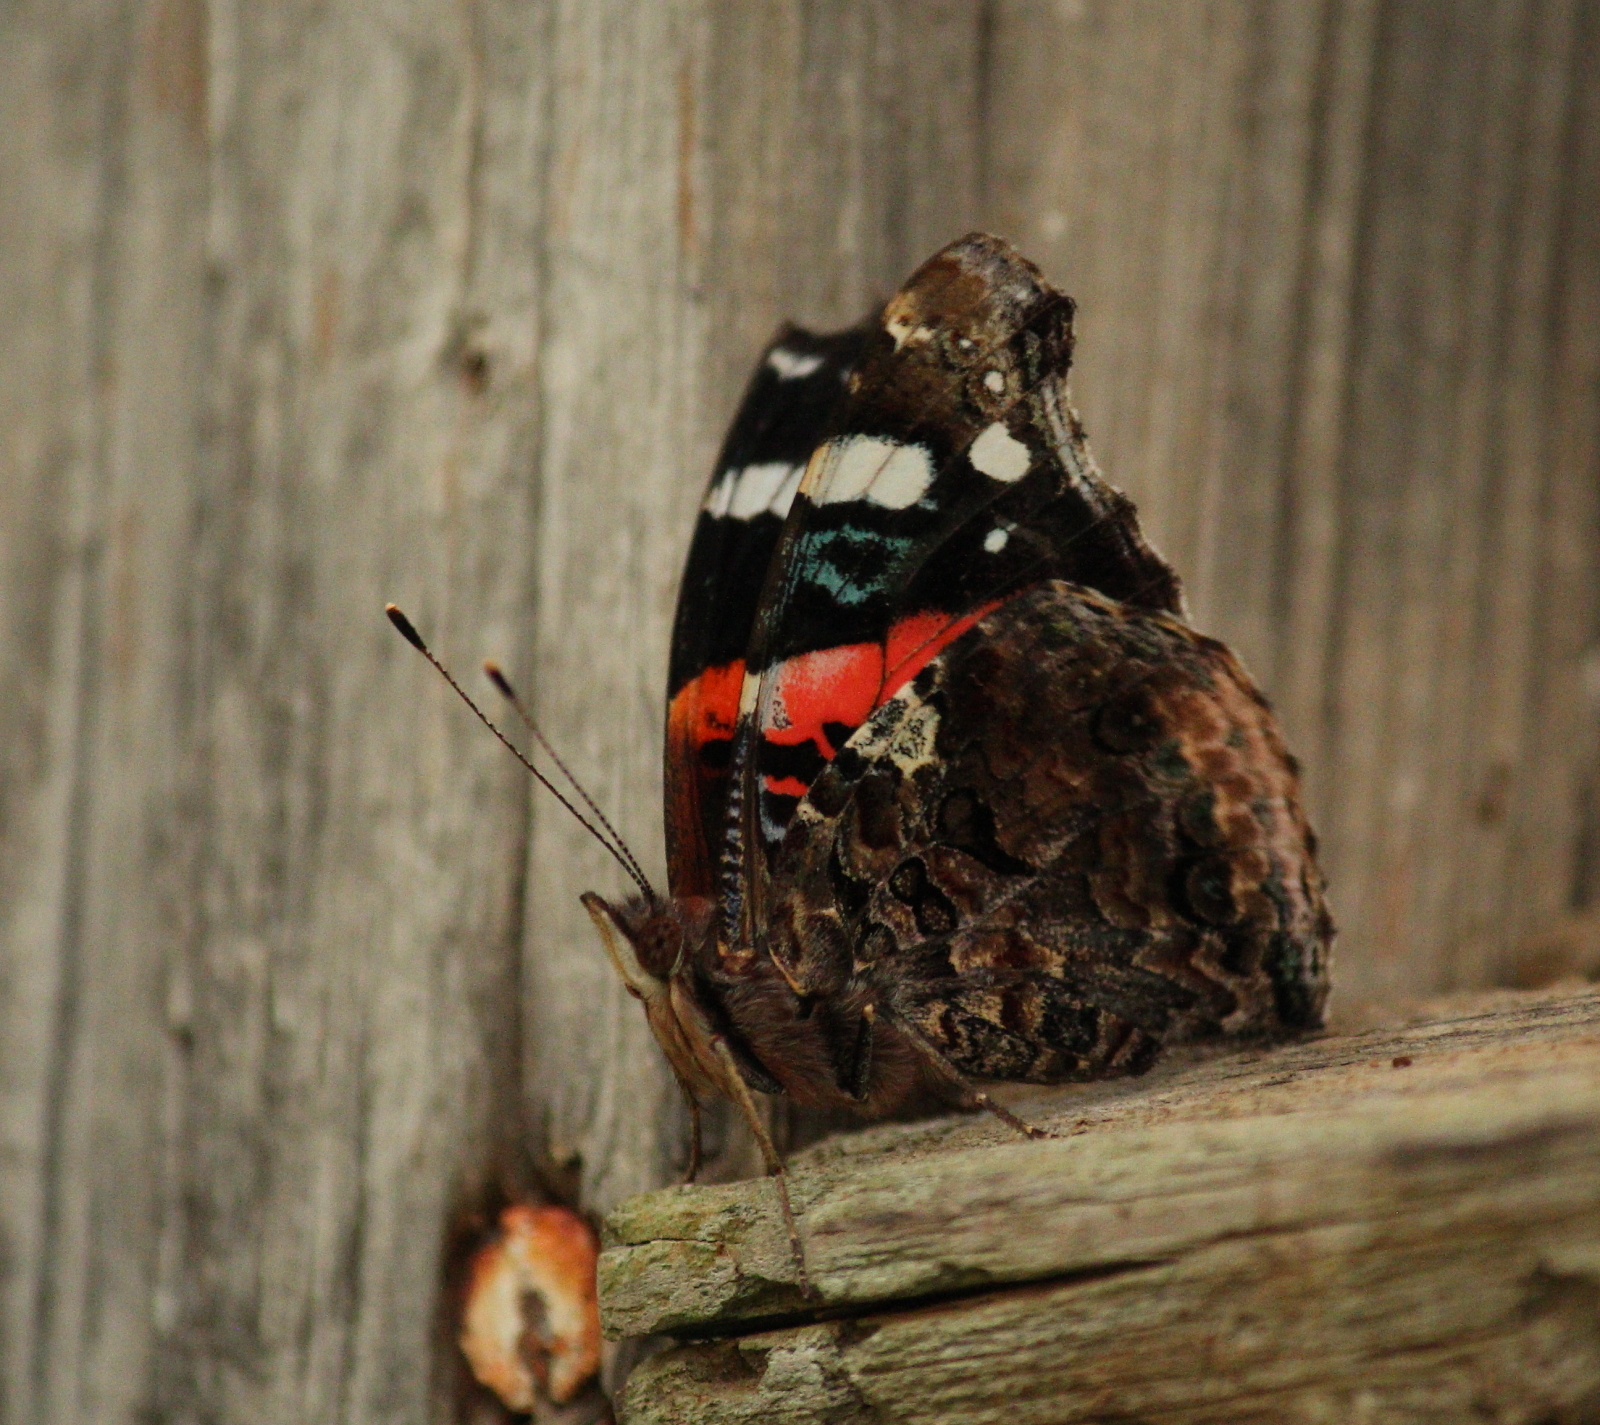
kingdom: Animalia
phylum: Arthropoda
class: Insecta
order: Lepidoptera
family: Nymphalidae
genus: Vanessa
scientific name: Vanessa atalanta
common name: Red admiral
